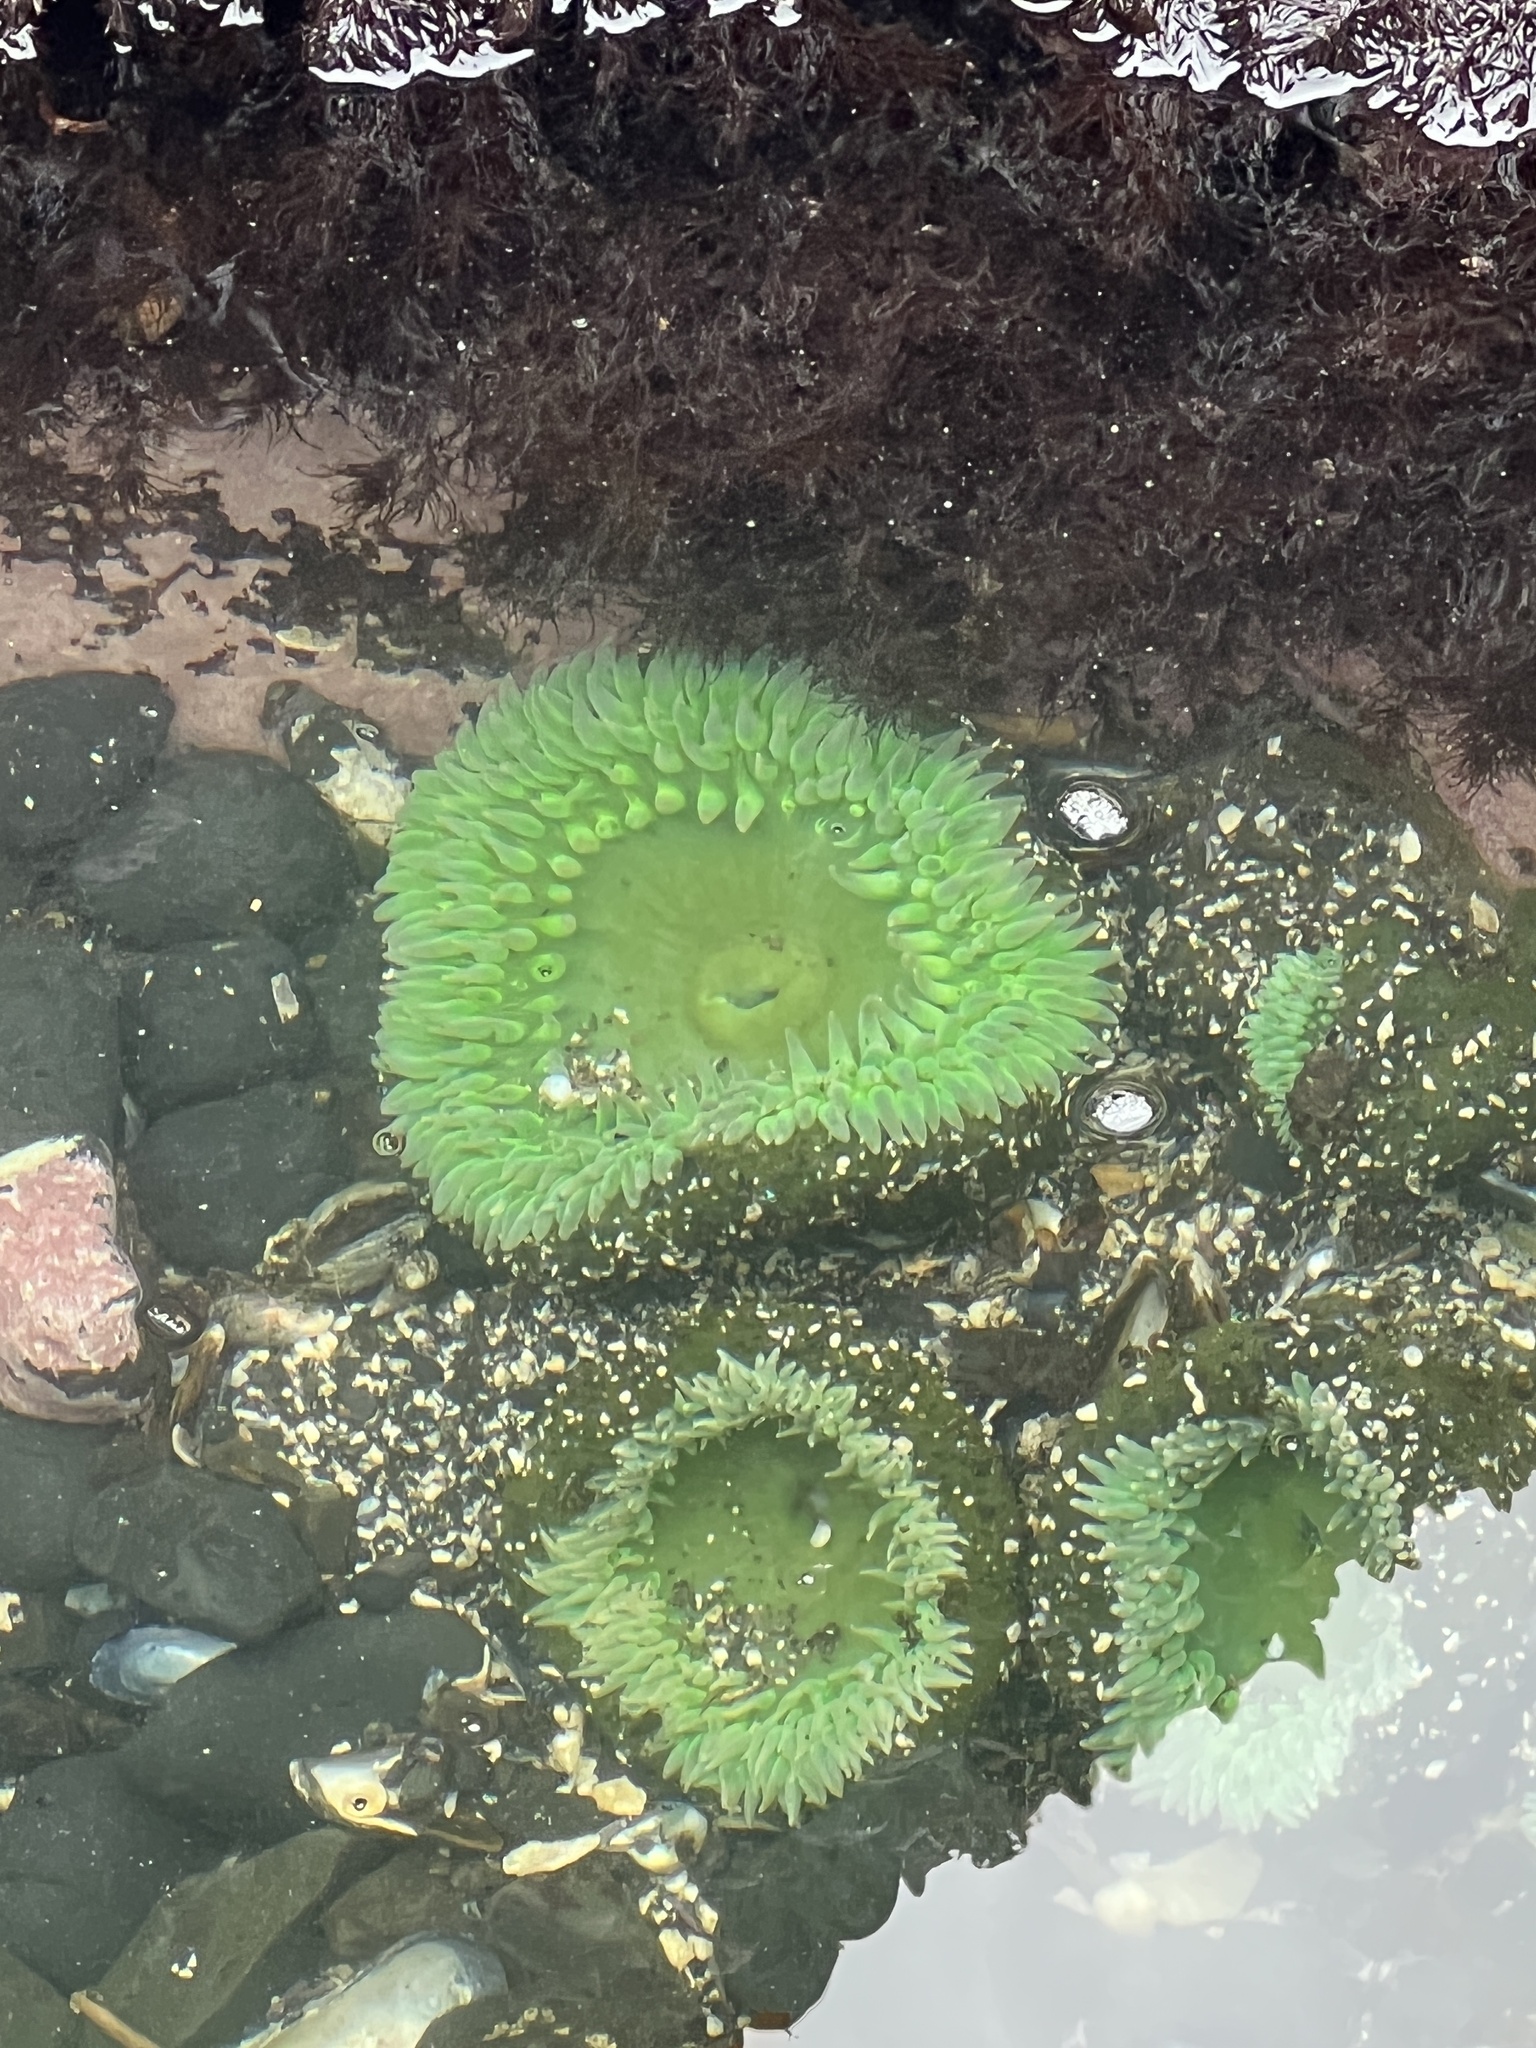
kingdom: Animalia
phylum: Cnidaria
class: Anthozoa
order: Actiniaria
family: Actiniidae
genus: Anthopleura
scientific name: Anthopleura xanthogrammica
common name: Giant green anemone
